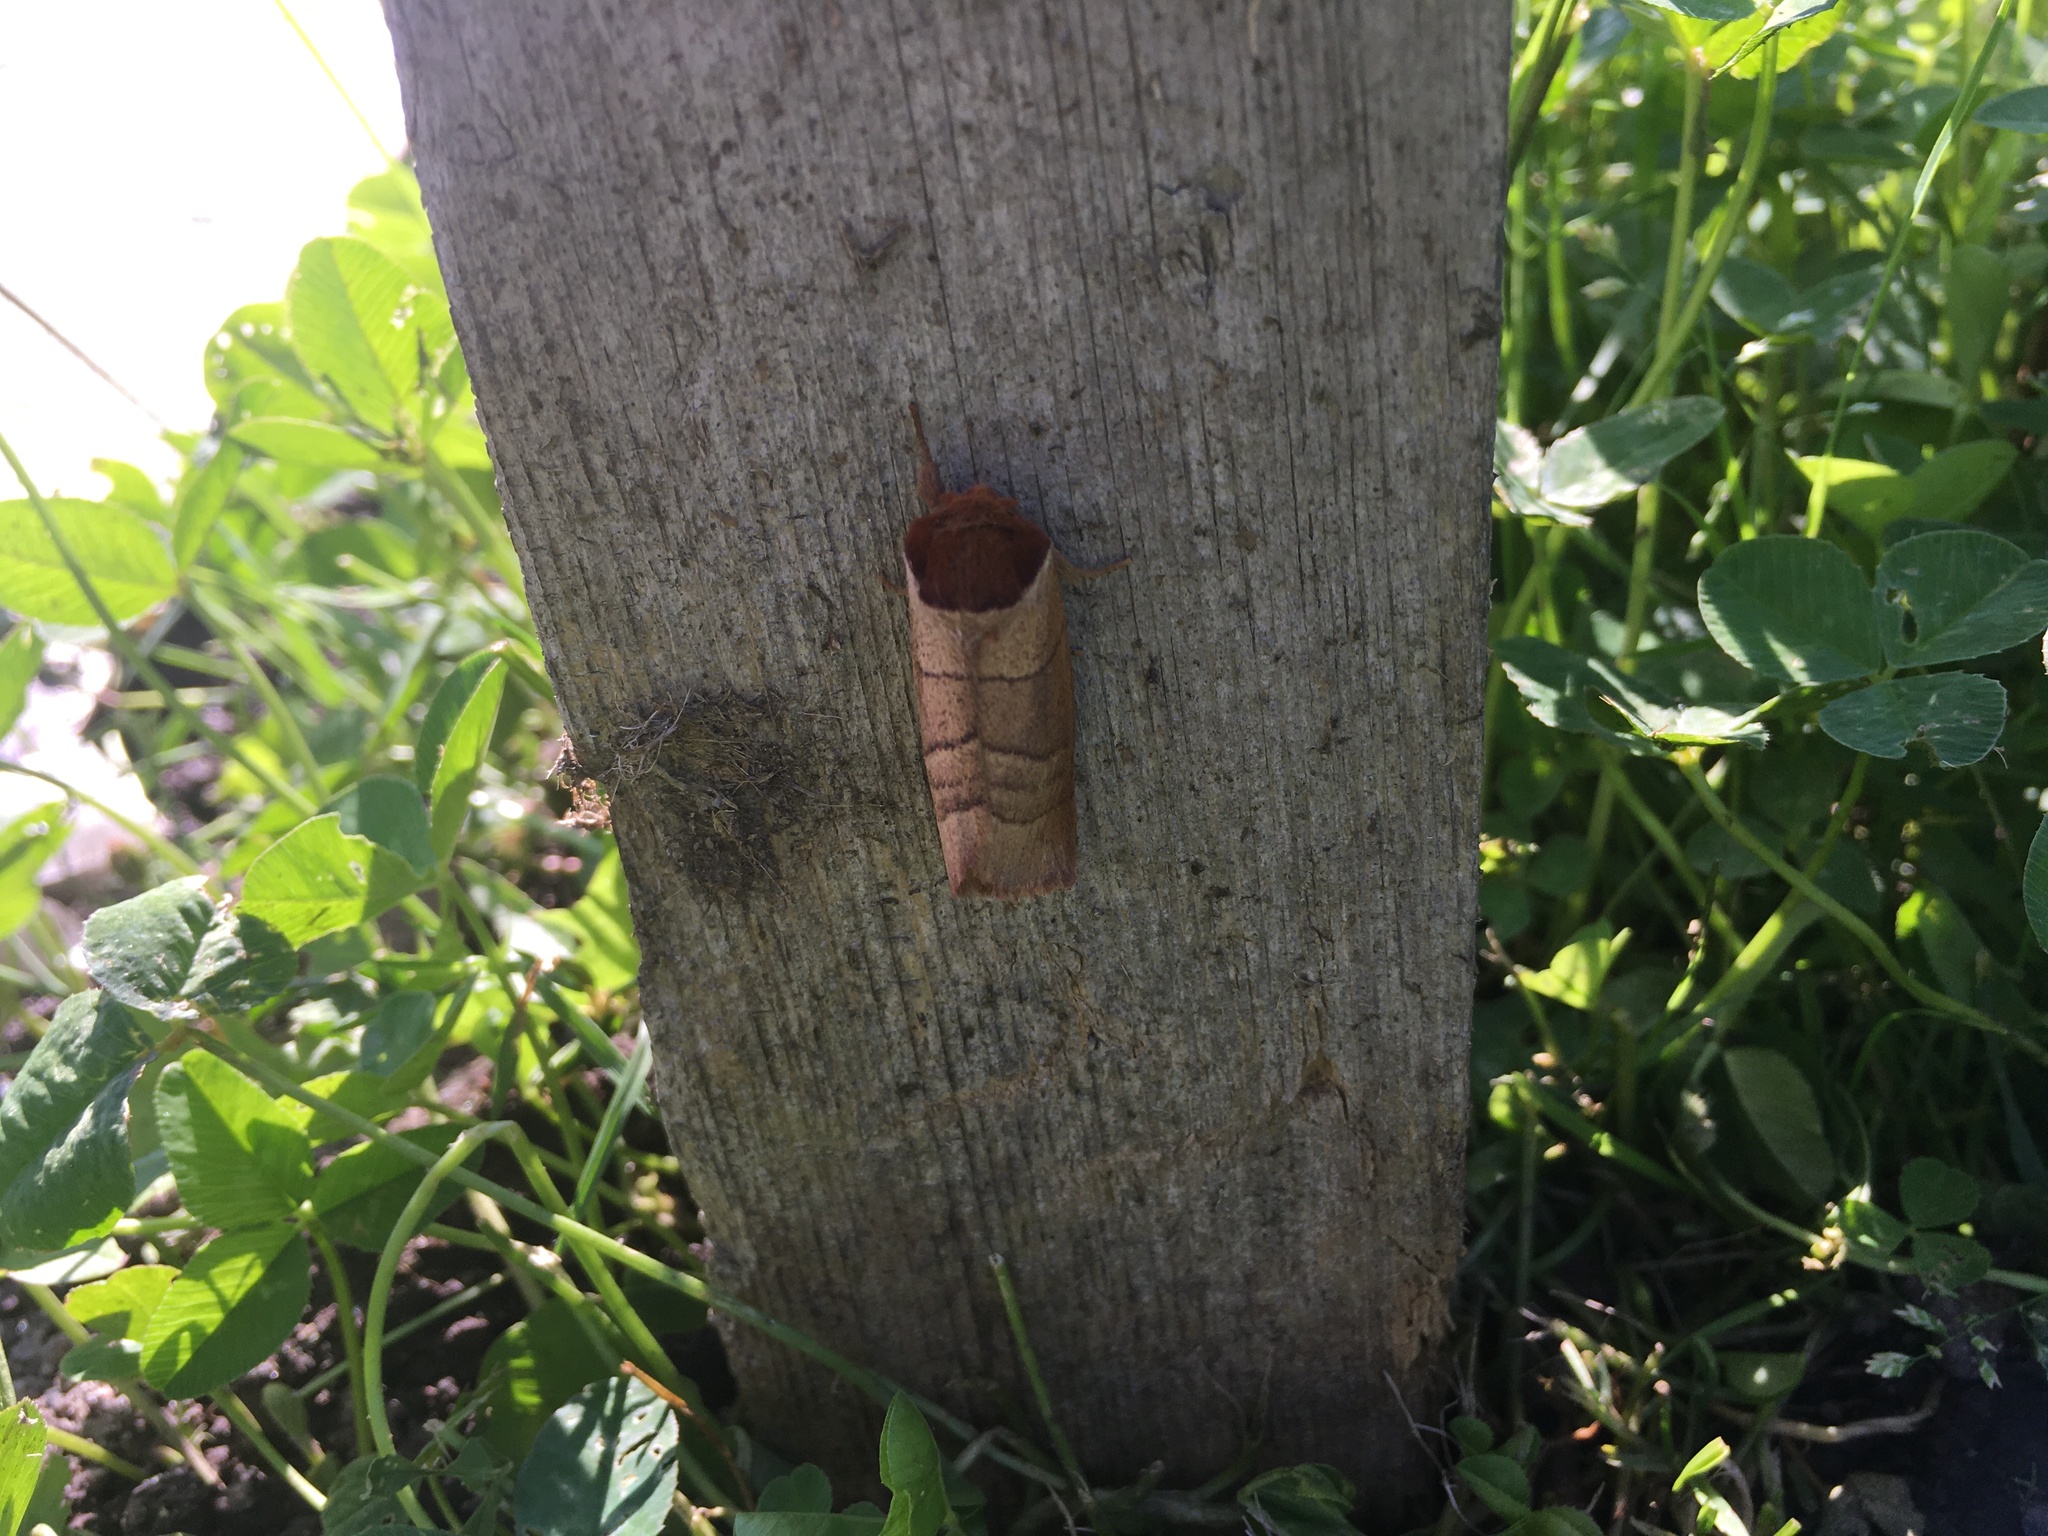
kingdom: Animalia
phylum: Arthropoda
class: Insecta
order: Lepidoptera
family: Notodontidae
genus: Datana
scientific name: Datana ministra
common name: Yellow-necked caterpillar moth
